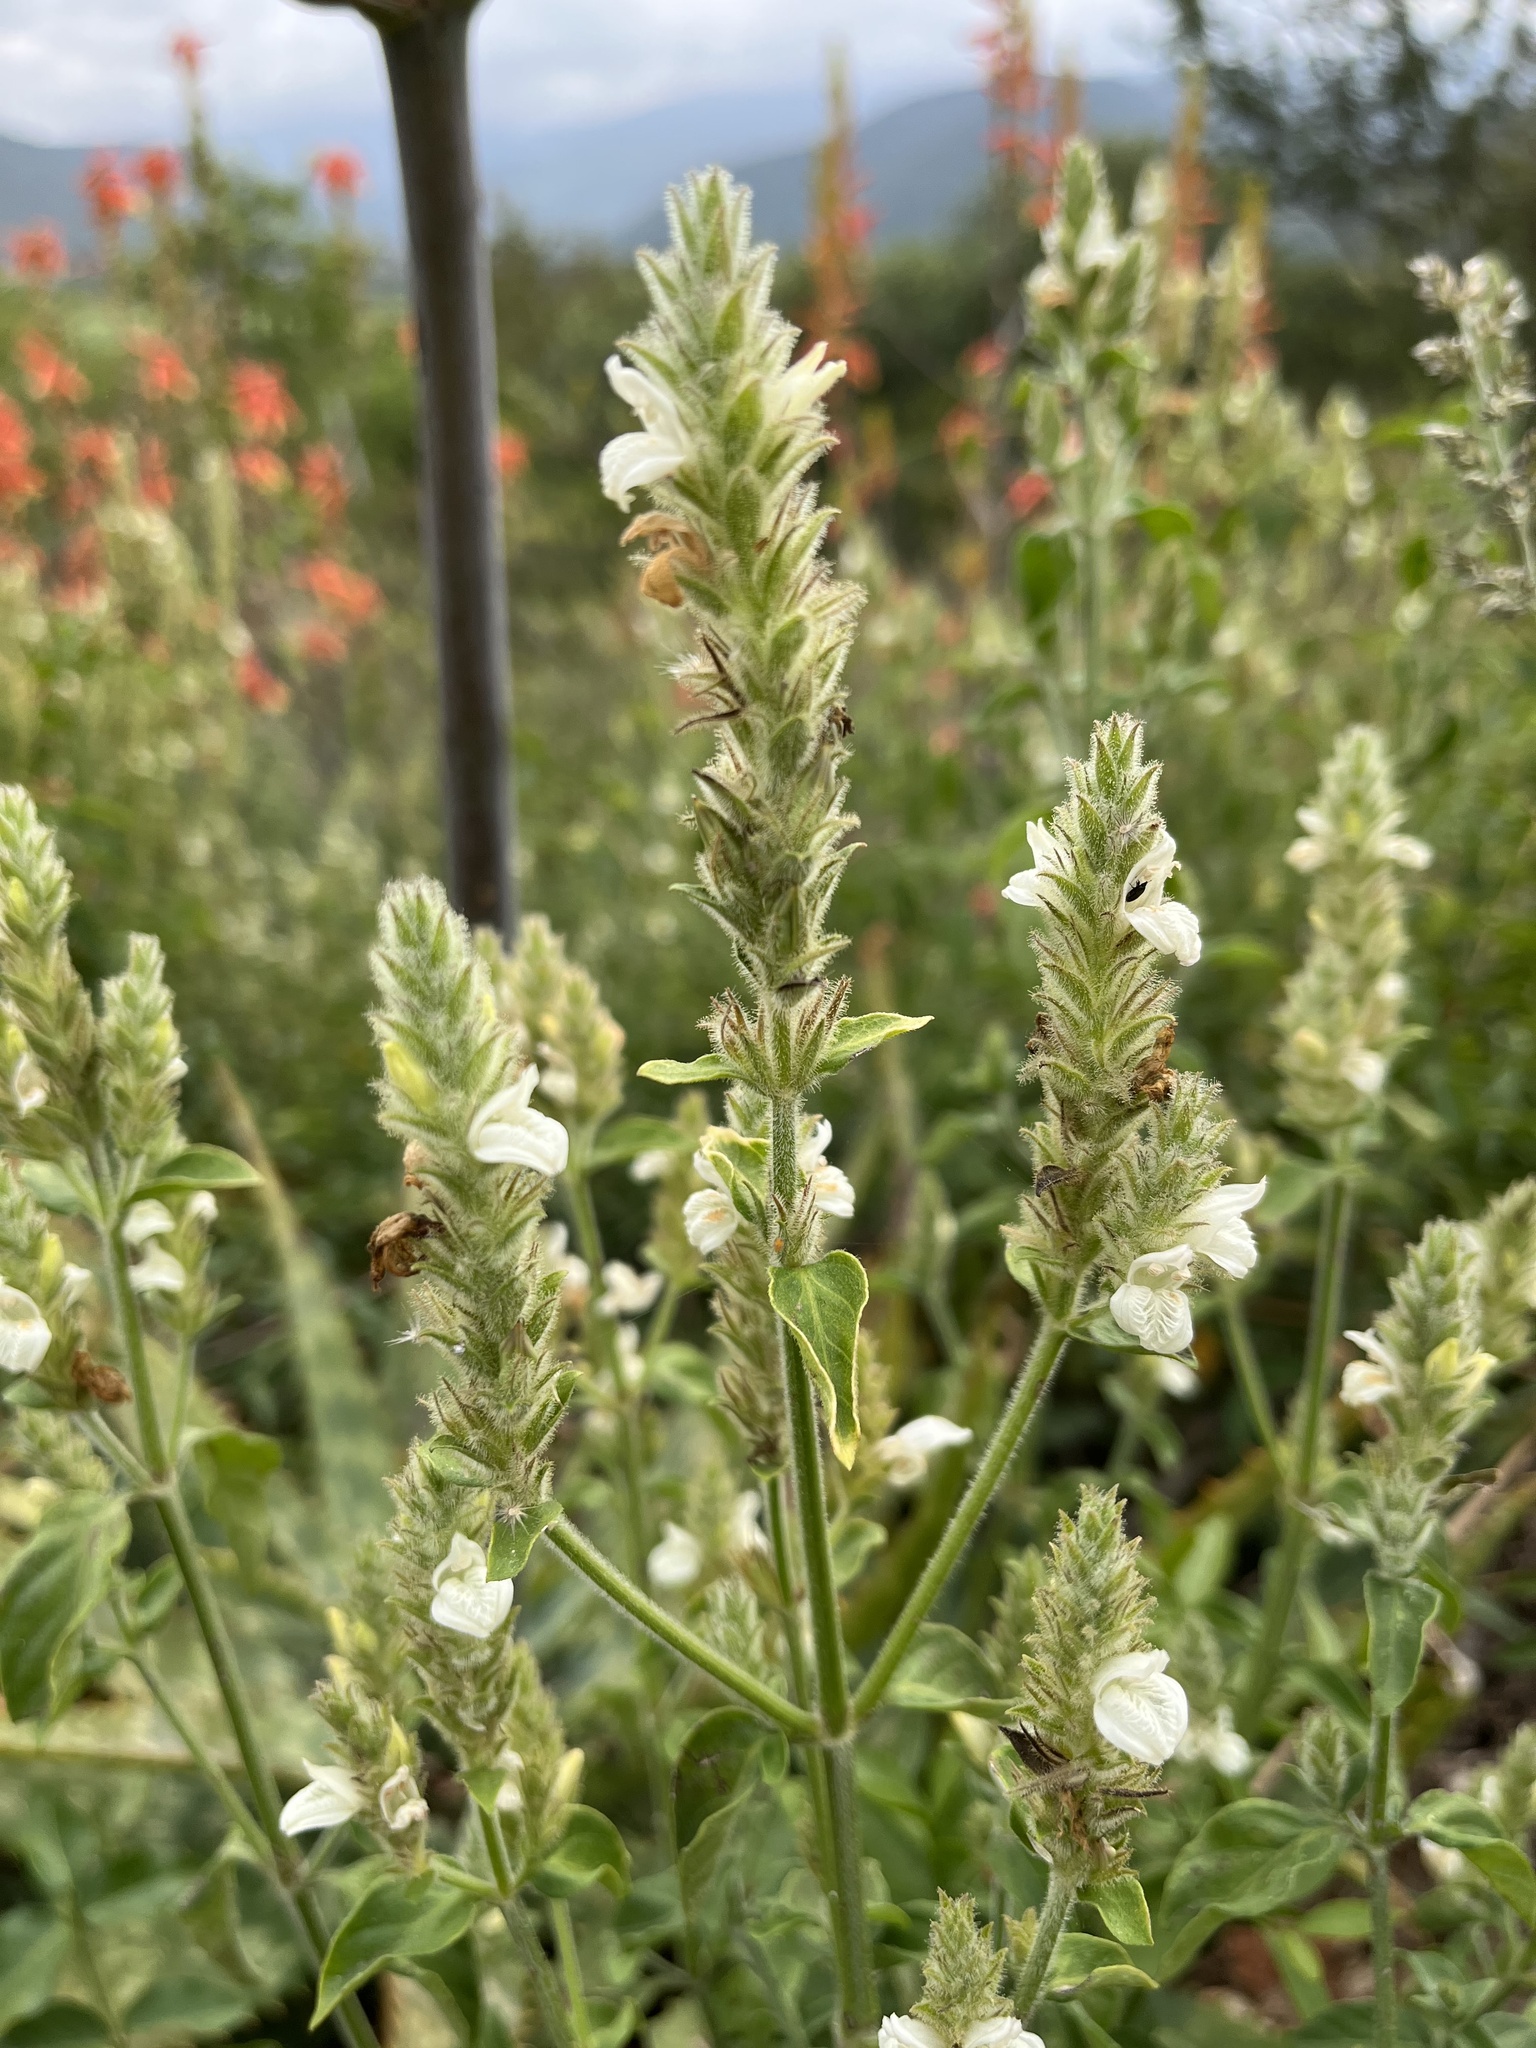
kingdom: Plantae
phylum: Tracheophyta
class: Magnoliopsida
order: Lamiales
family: Acanthaceae
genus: Isoglossa
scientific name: Isoglossa glandulosissima
